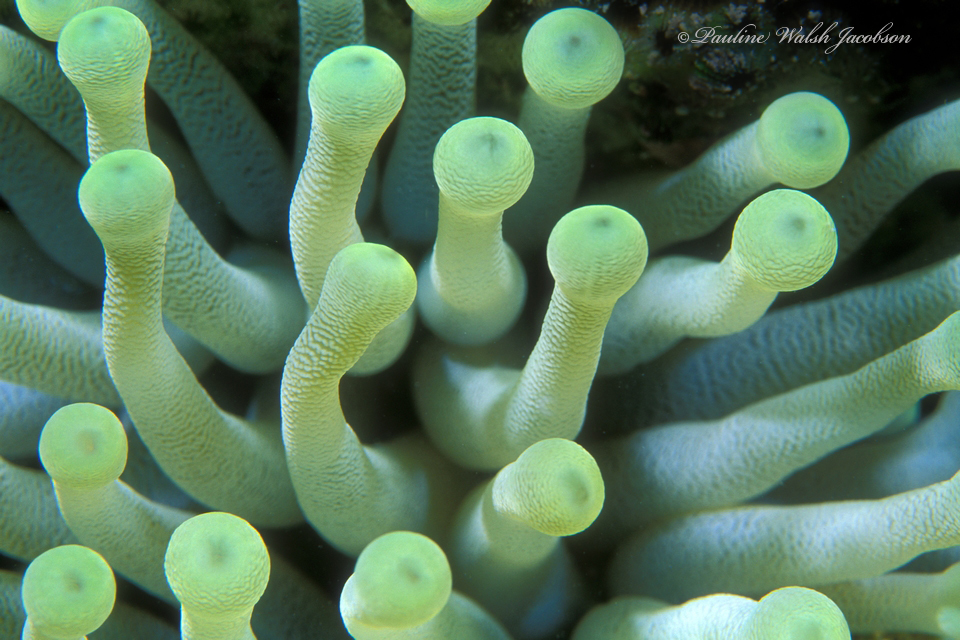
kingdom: Animalia
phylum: Cnidaria
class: Anthozoa
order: Actiniaria
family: Actiniidae
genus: Condylactis
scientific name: Condylactis gigantea
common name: Giant caribbean anemone
